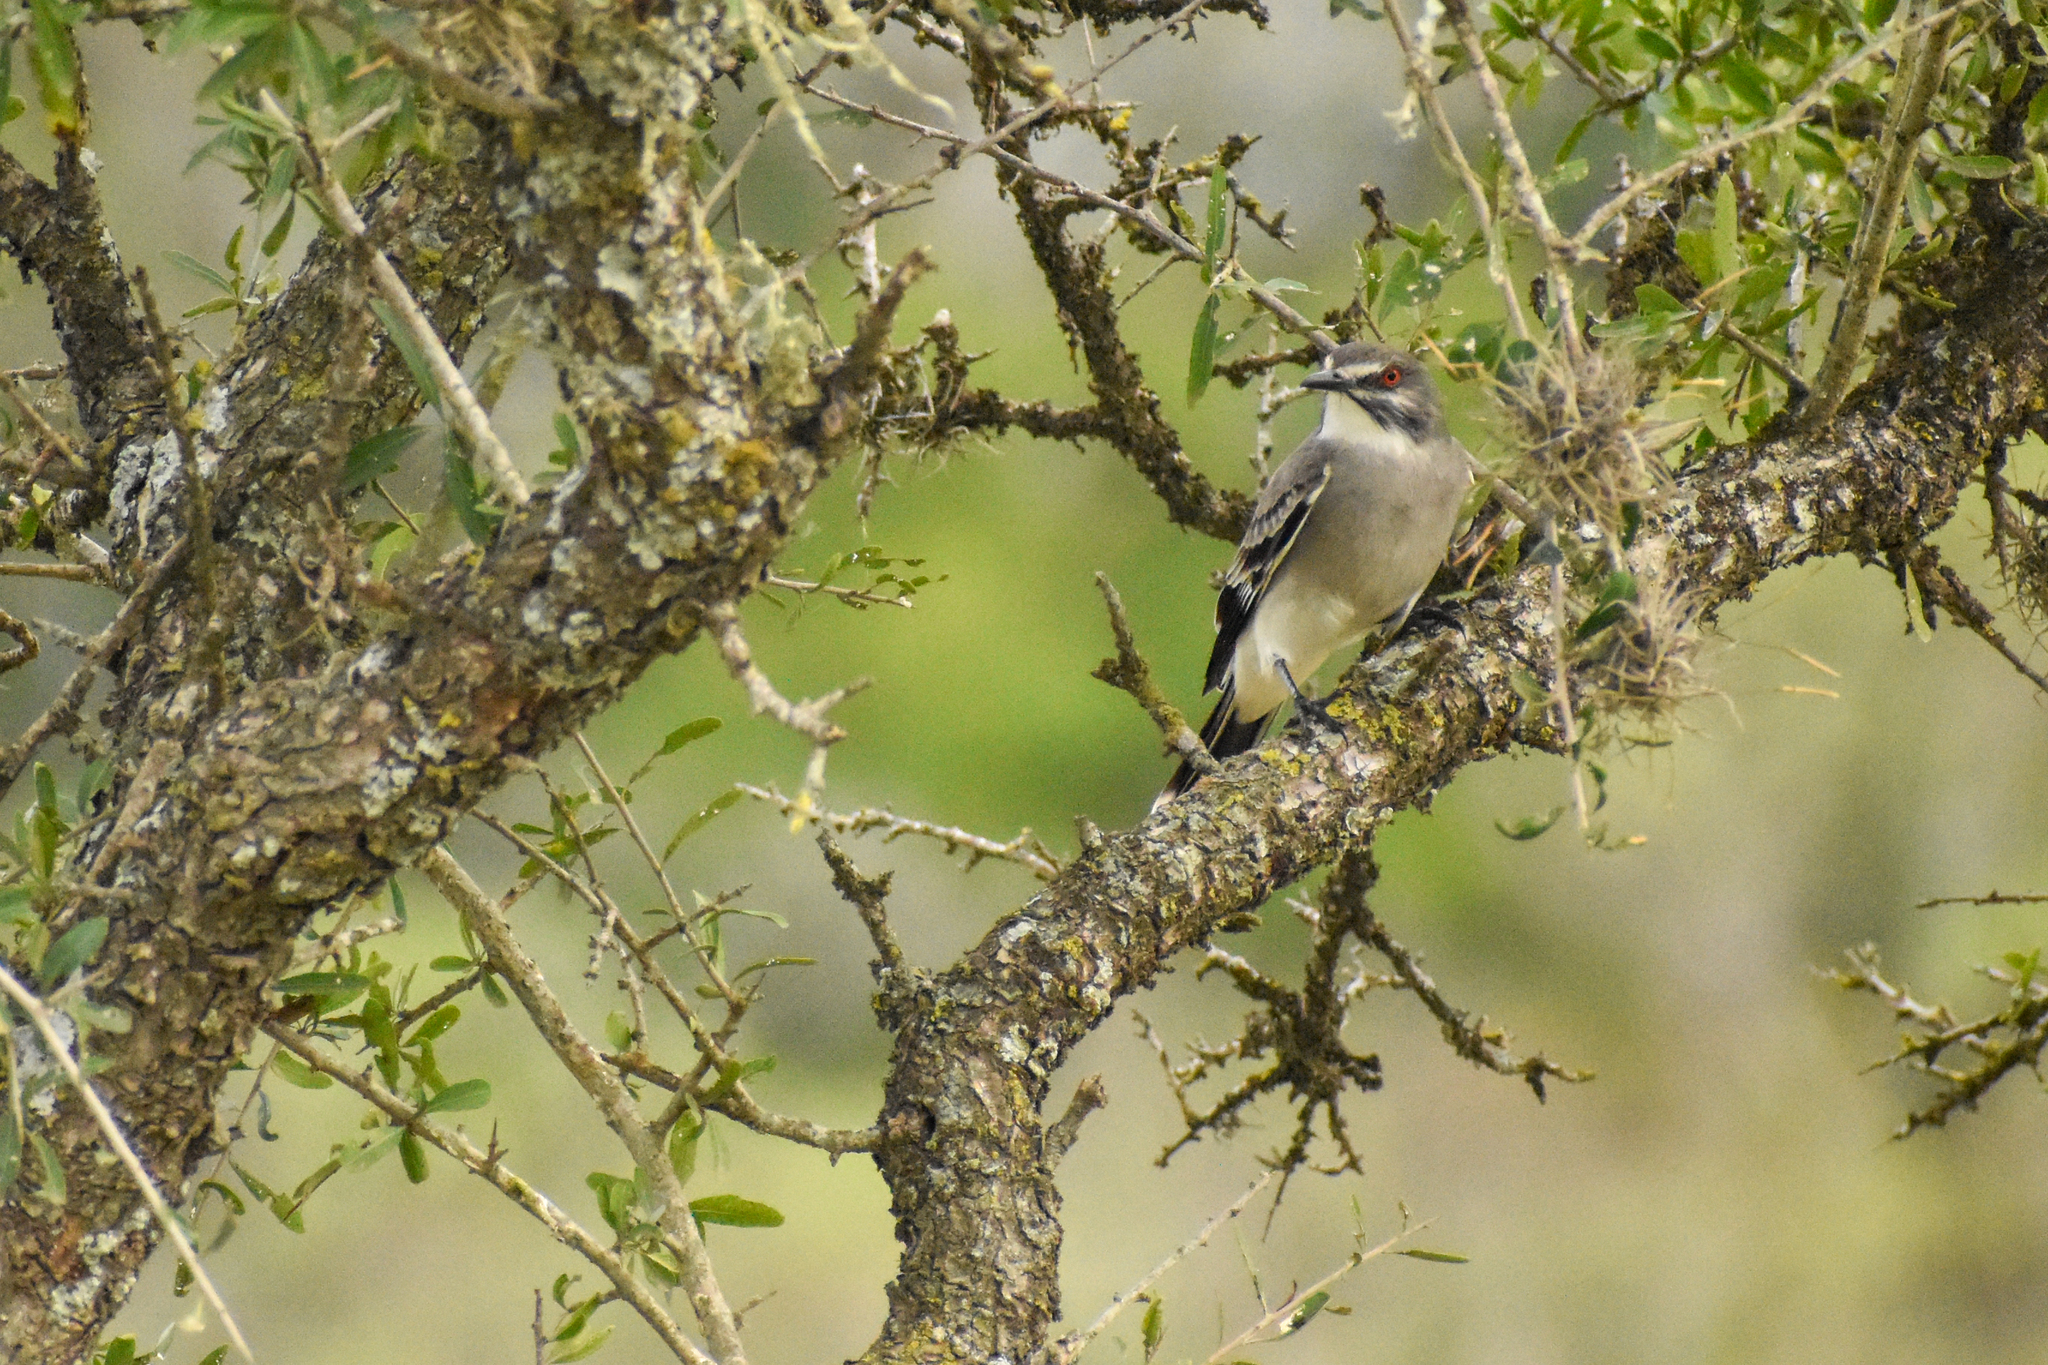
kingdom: Animalia
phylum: Chordata
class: Aves
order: Passeriformes
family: Tyrannidae
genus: Xolmis
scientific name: Xolmis cinereus
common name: Grey monjita
